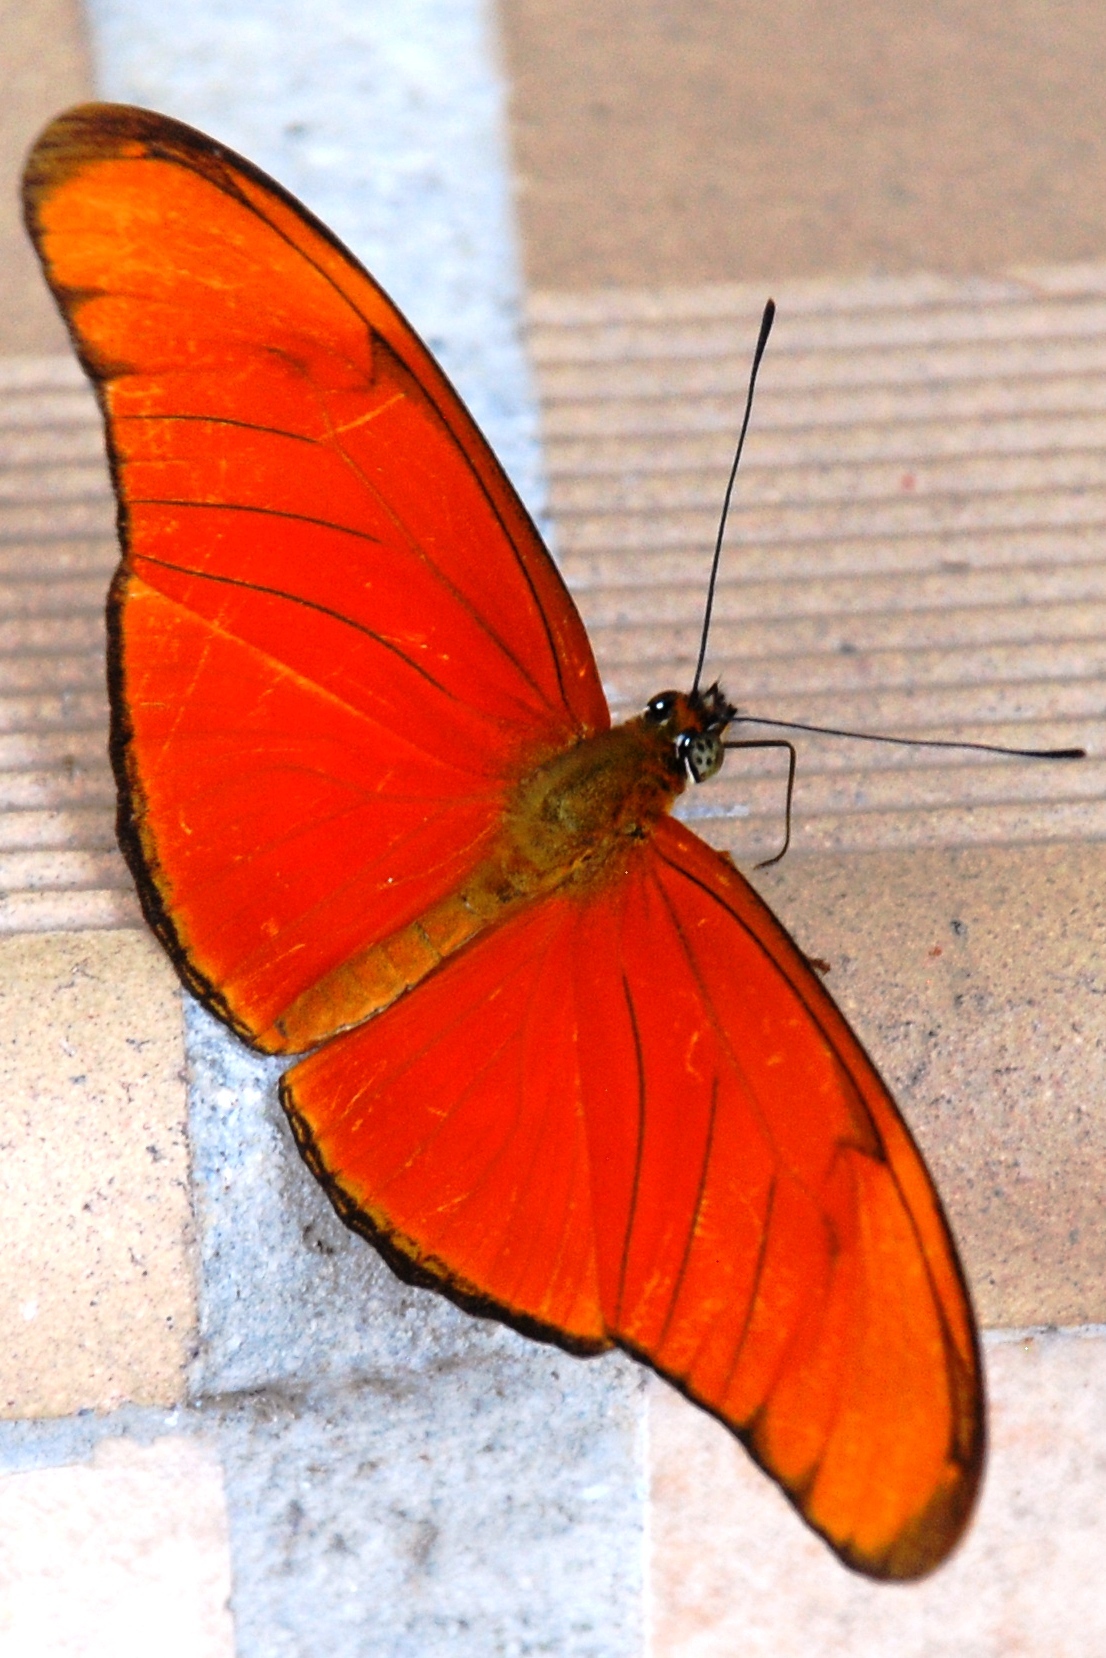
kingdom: Animalia
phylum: Arthropoda
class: Insecta
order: Lepidoptera
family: Nymphalidae
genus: Dryas
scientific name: Dryas iulia
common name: Flambeau
